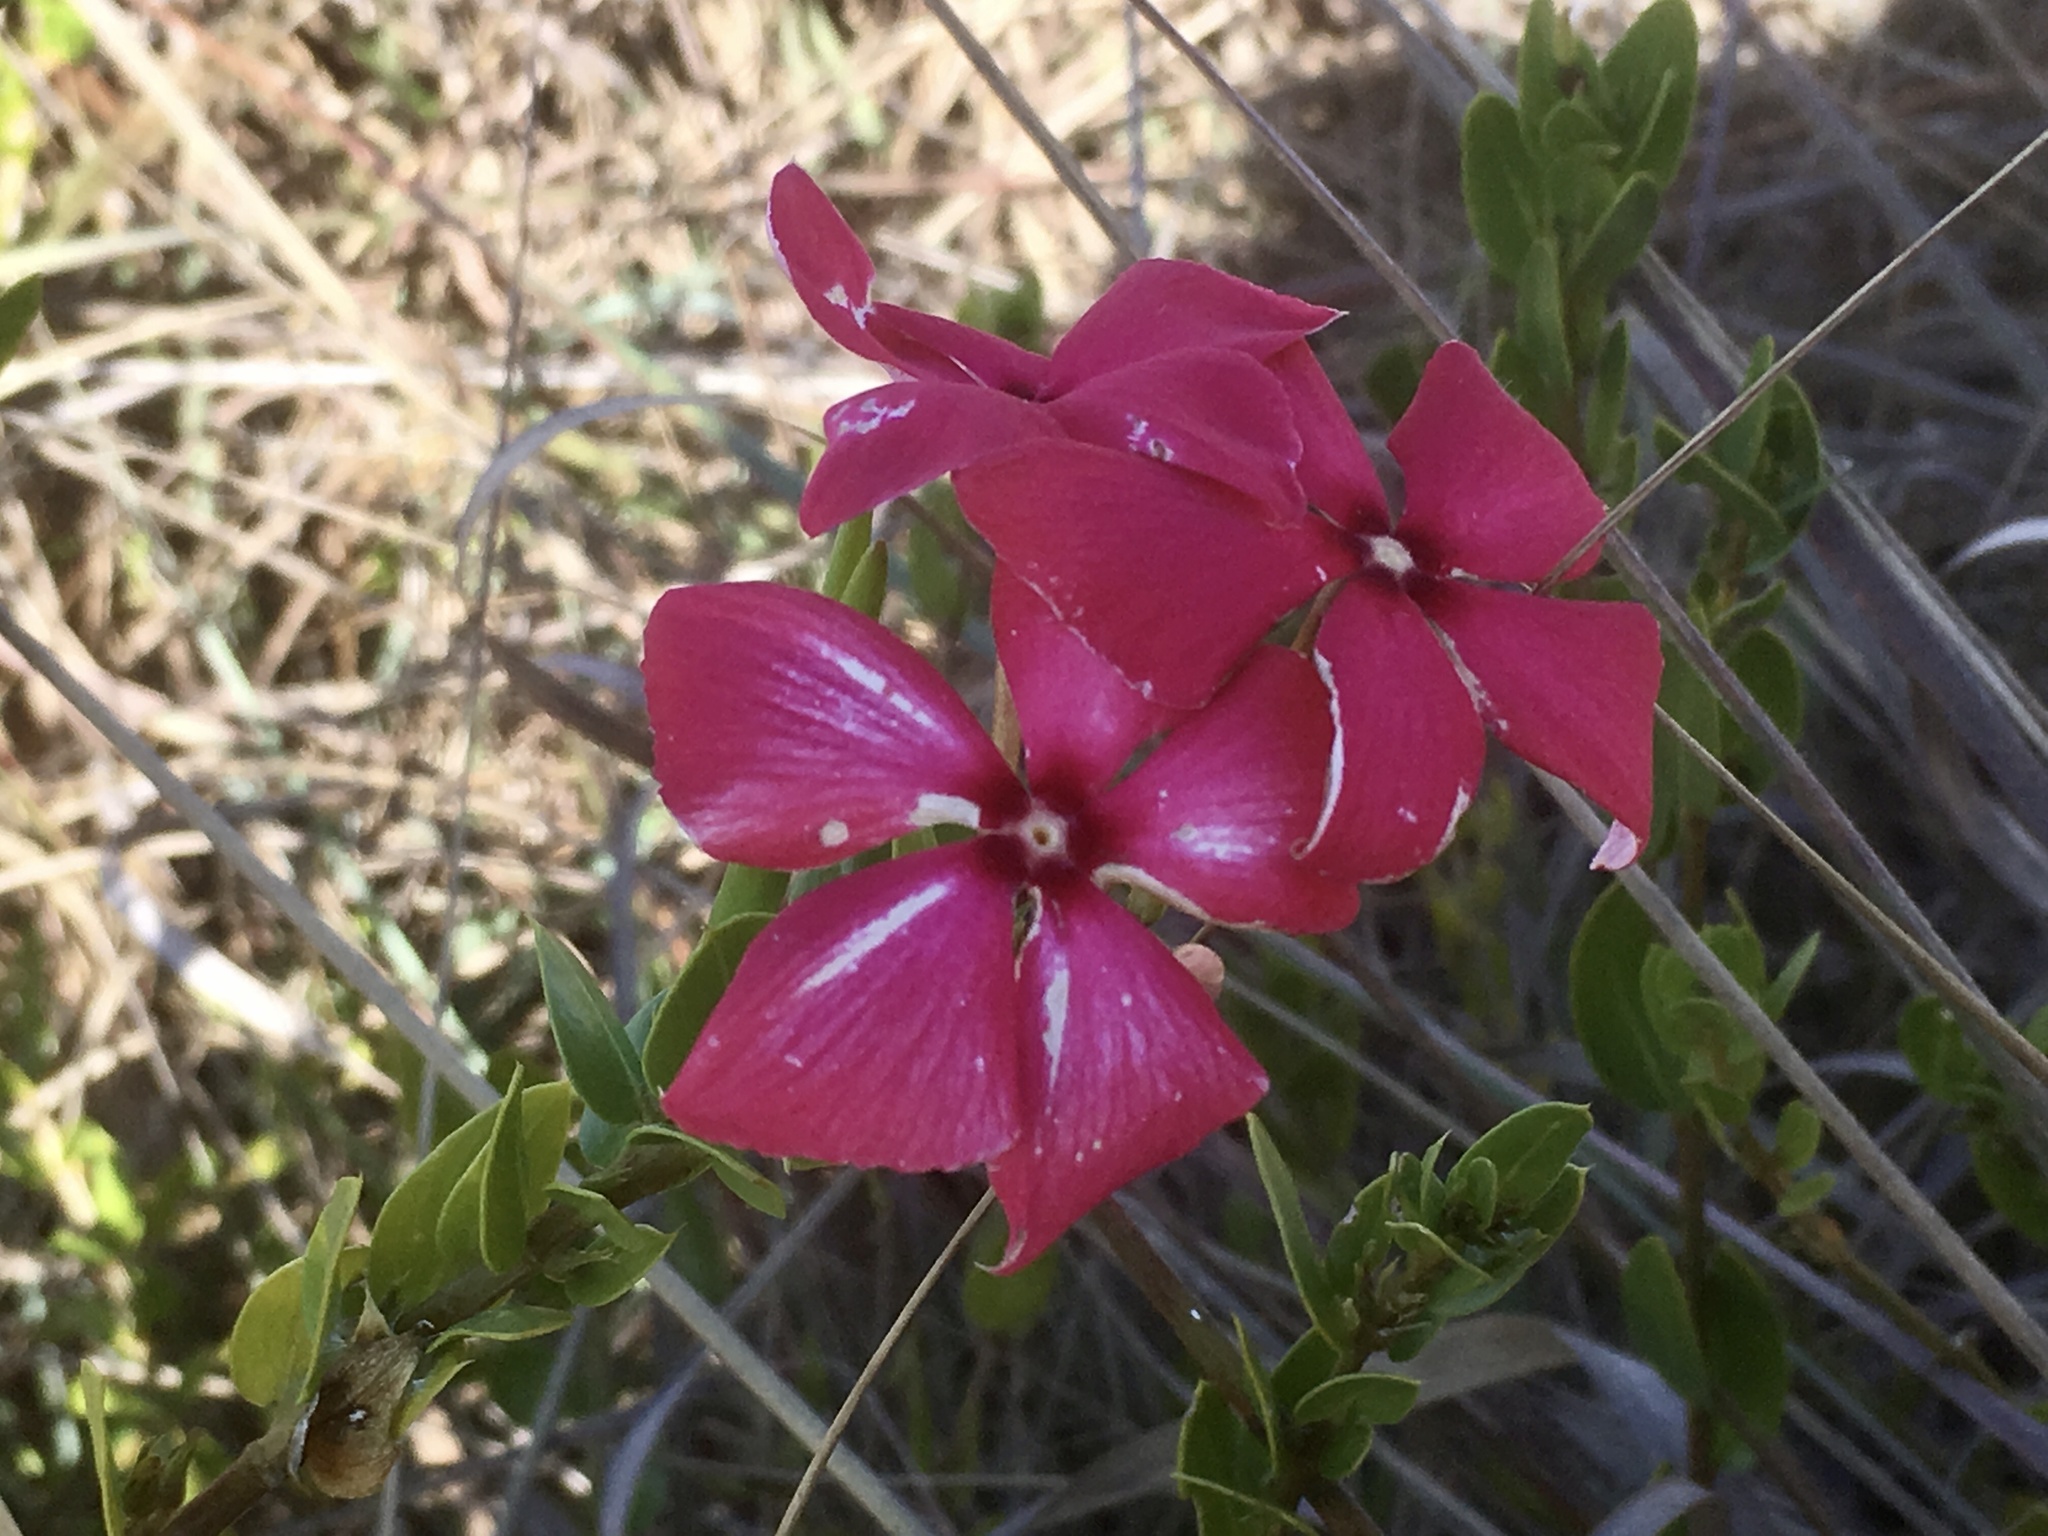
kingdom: Plantae
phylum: Tracheophyta
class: Magnoliopsida
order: Gentianales
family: Apocynaceae
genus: Catharanthus
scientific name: Catharanthus ovalis
